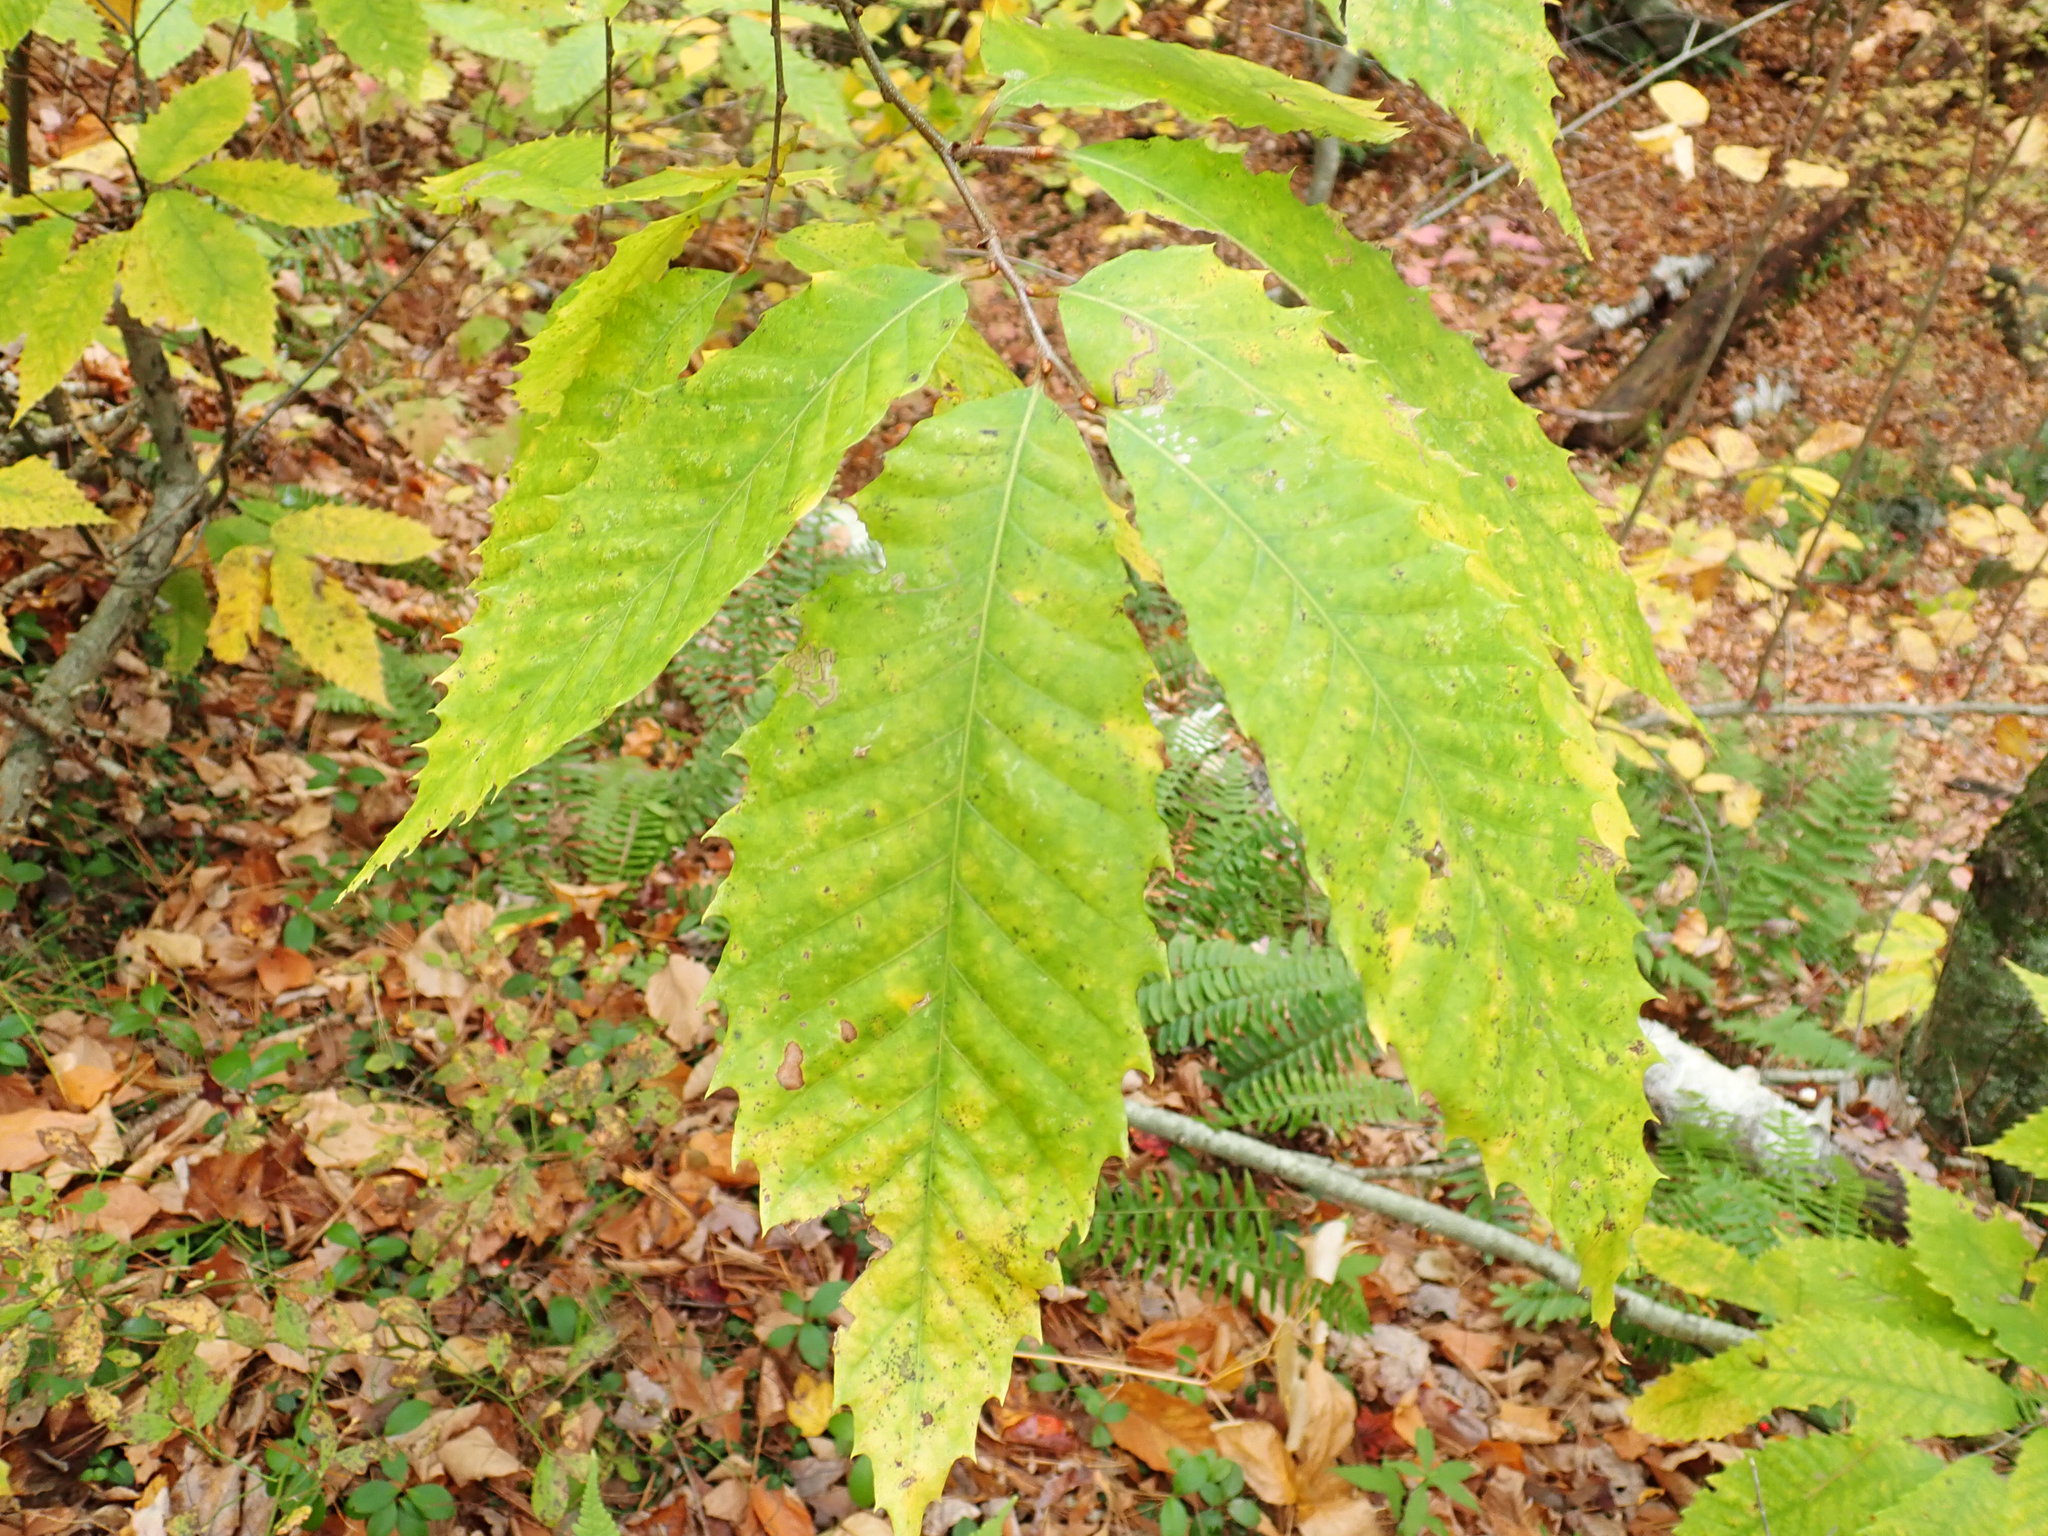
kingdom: Plantae
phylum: Tracheophyta
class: Magnoliopsida
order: Fagales
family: Fagaceae
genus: Castanea
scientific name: Castanea dentata
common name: American chestnut
